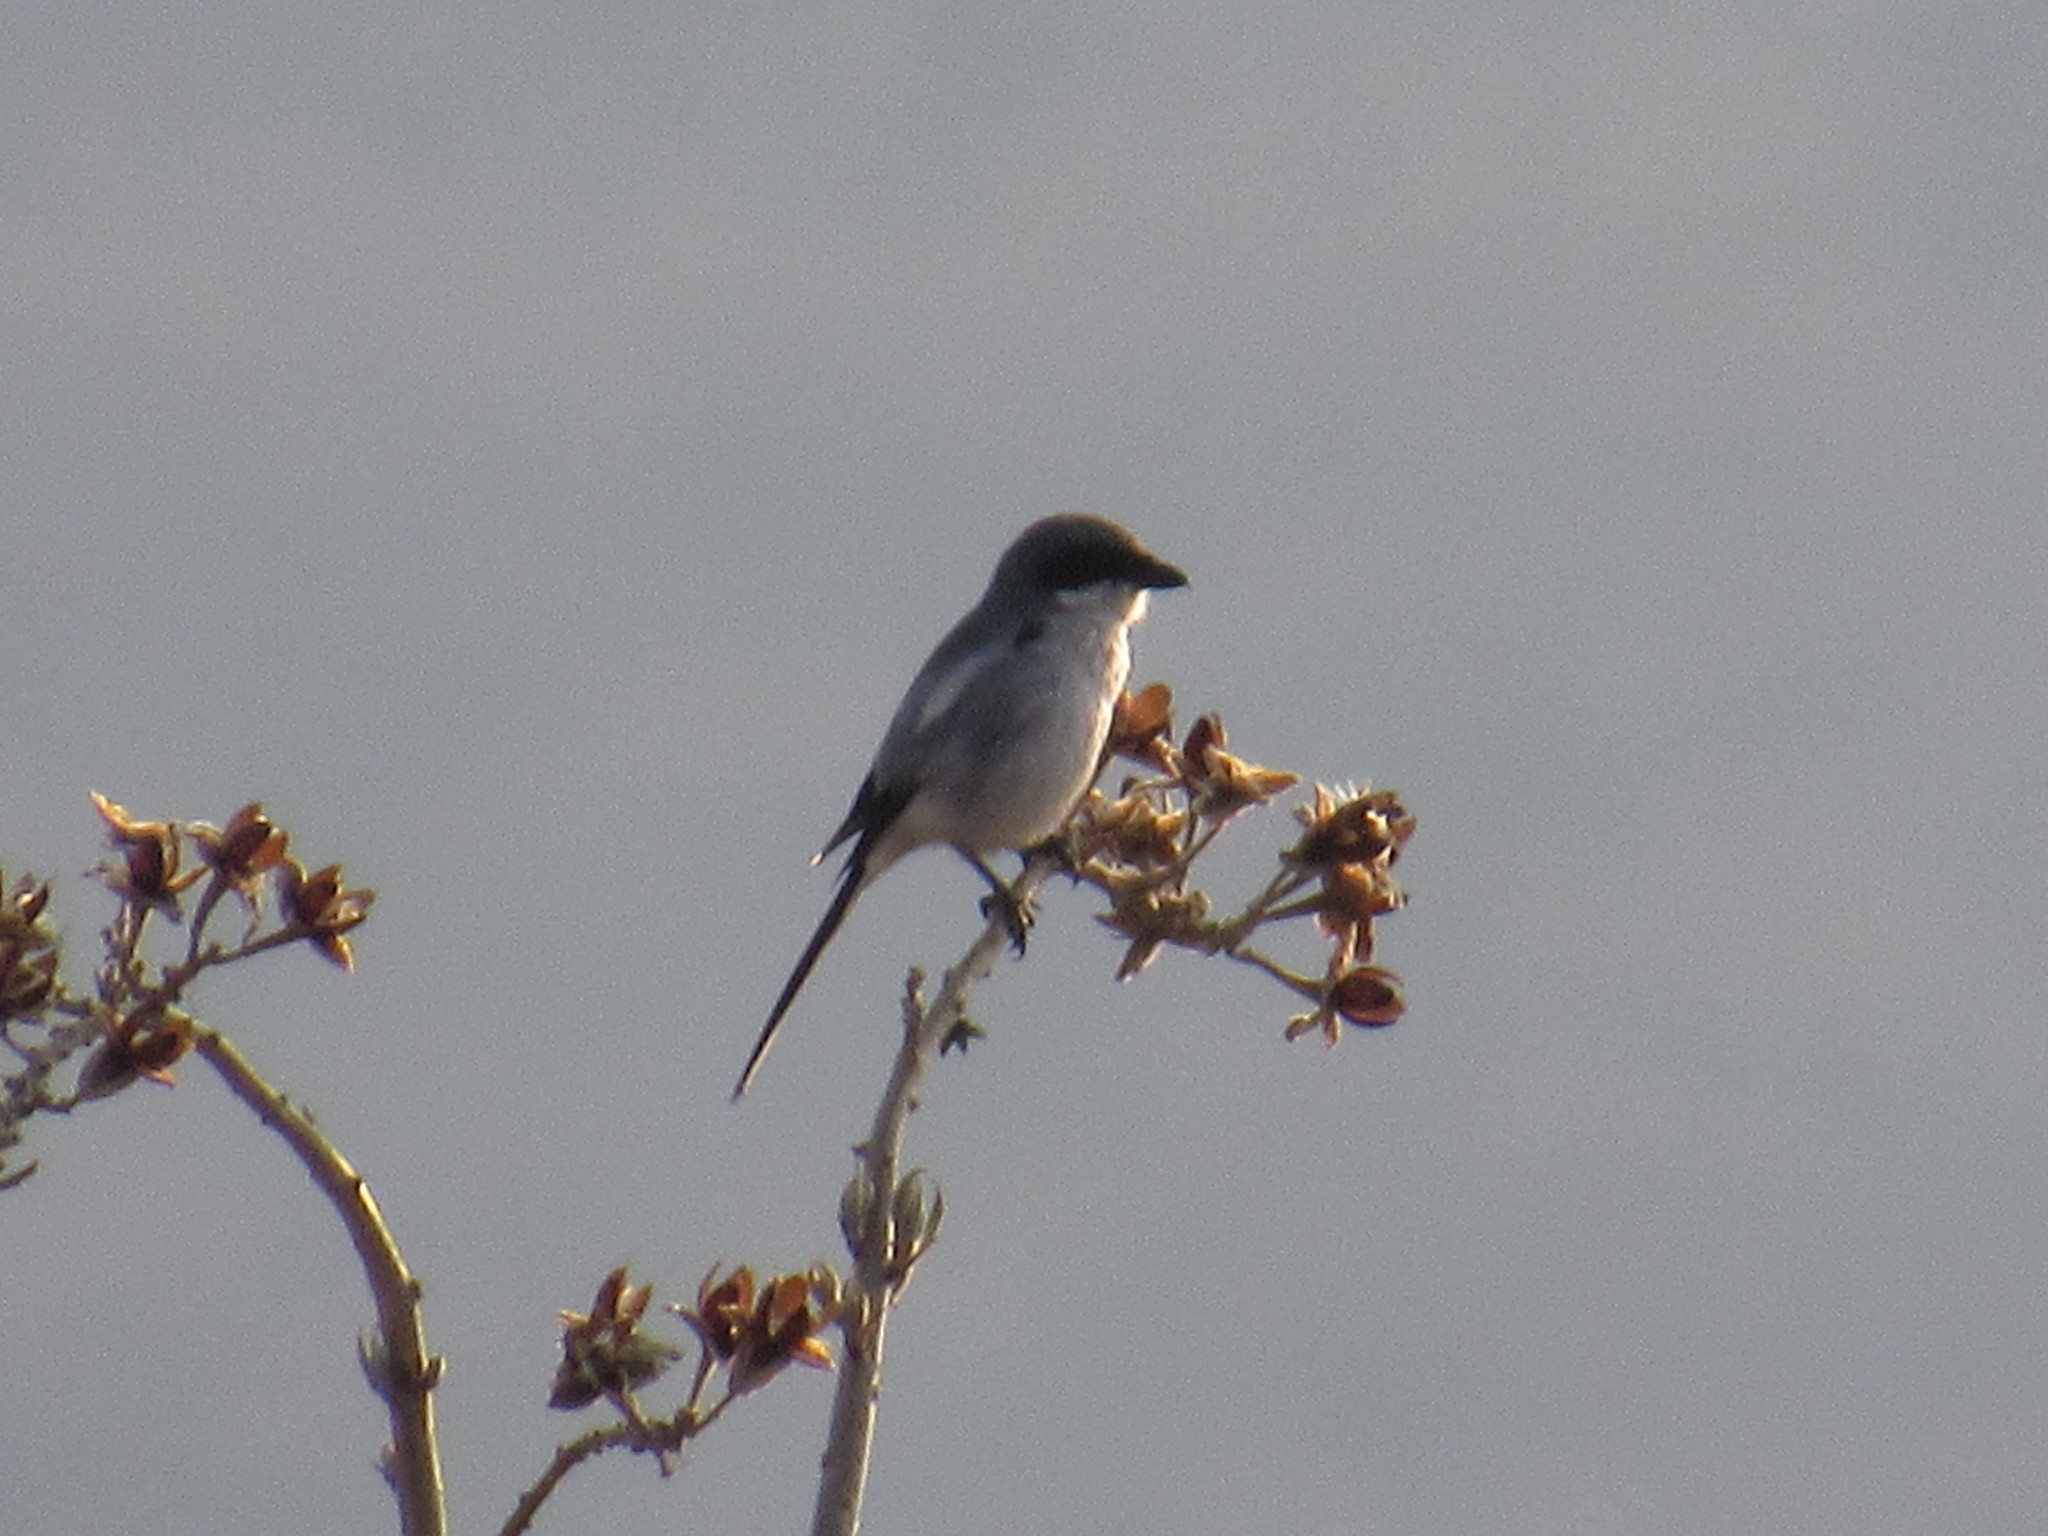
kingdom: Animalia
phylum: Chordata
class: Aves
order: Passeriformes
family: Laniidae
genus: Lanius
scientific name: Lanius ludovicianus
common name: Loggerhead shrike
